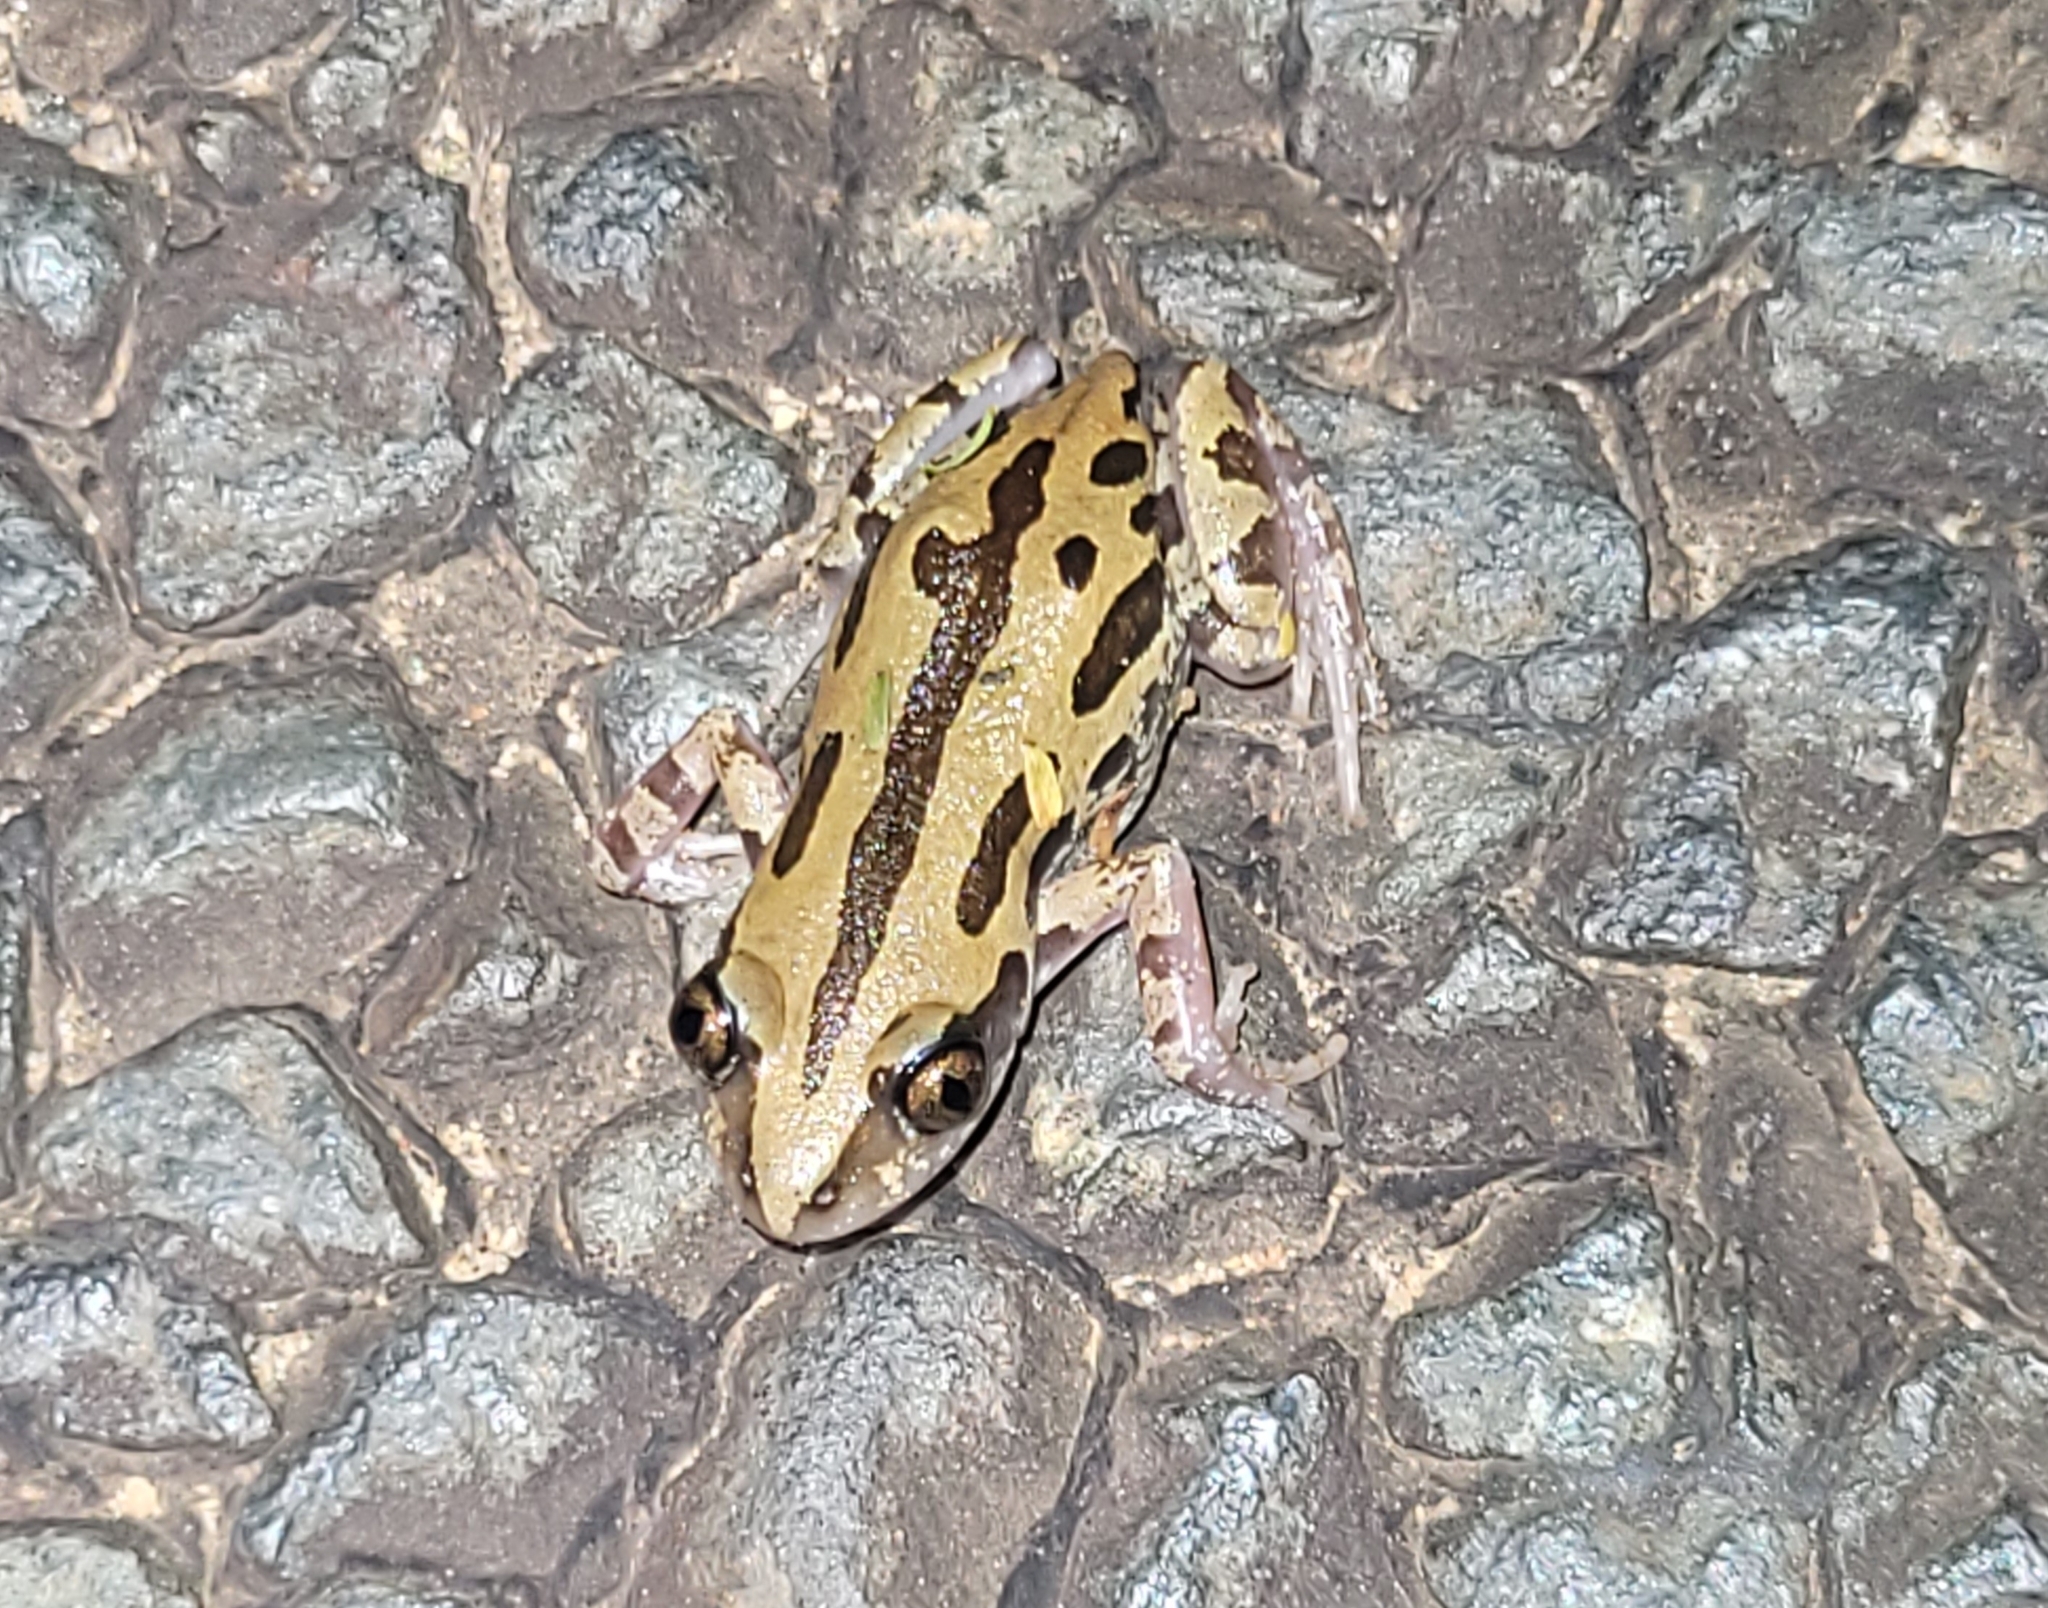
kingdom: Animalia
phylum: Chordata
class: Amphibia
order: Anura
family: Hyperoliidae
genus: Kassina
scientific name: Kassina senegalensis
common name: Senegal land frog
